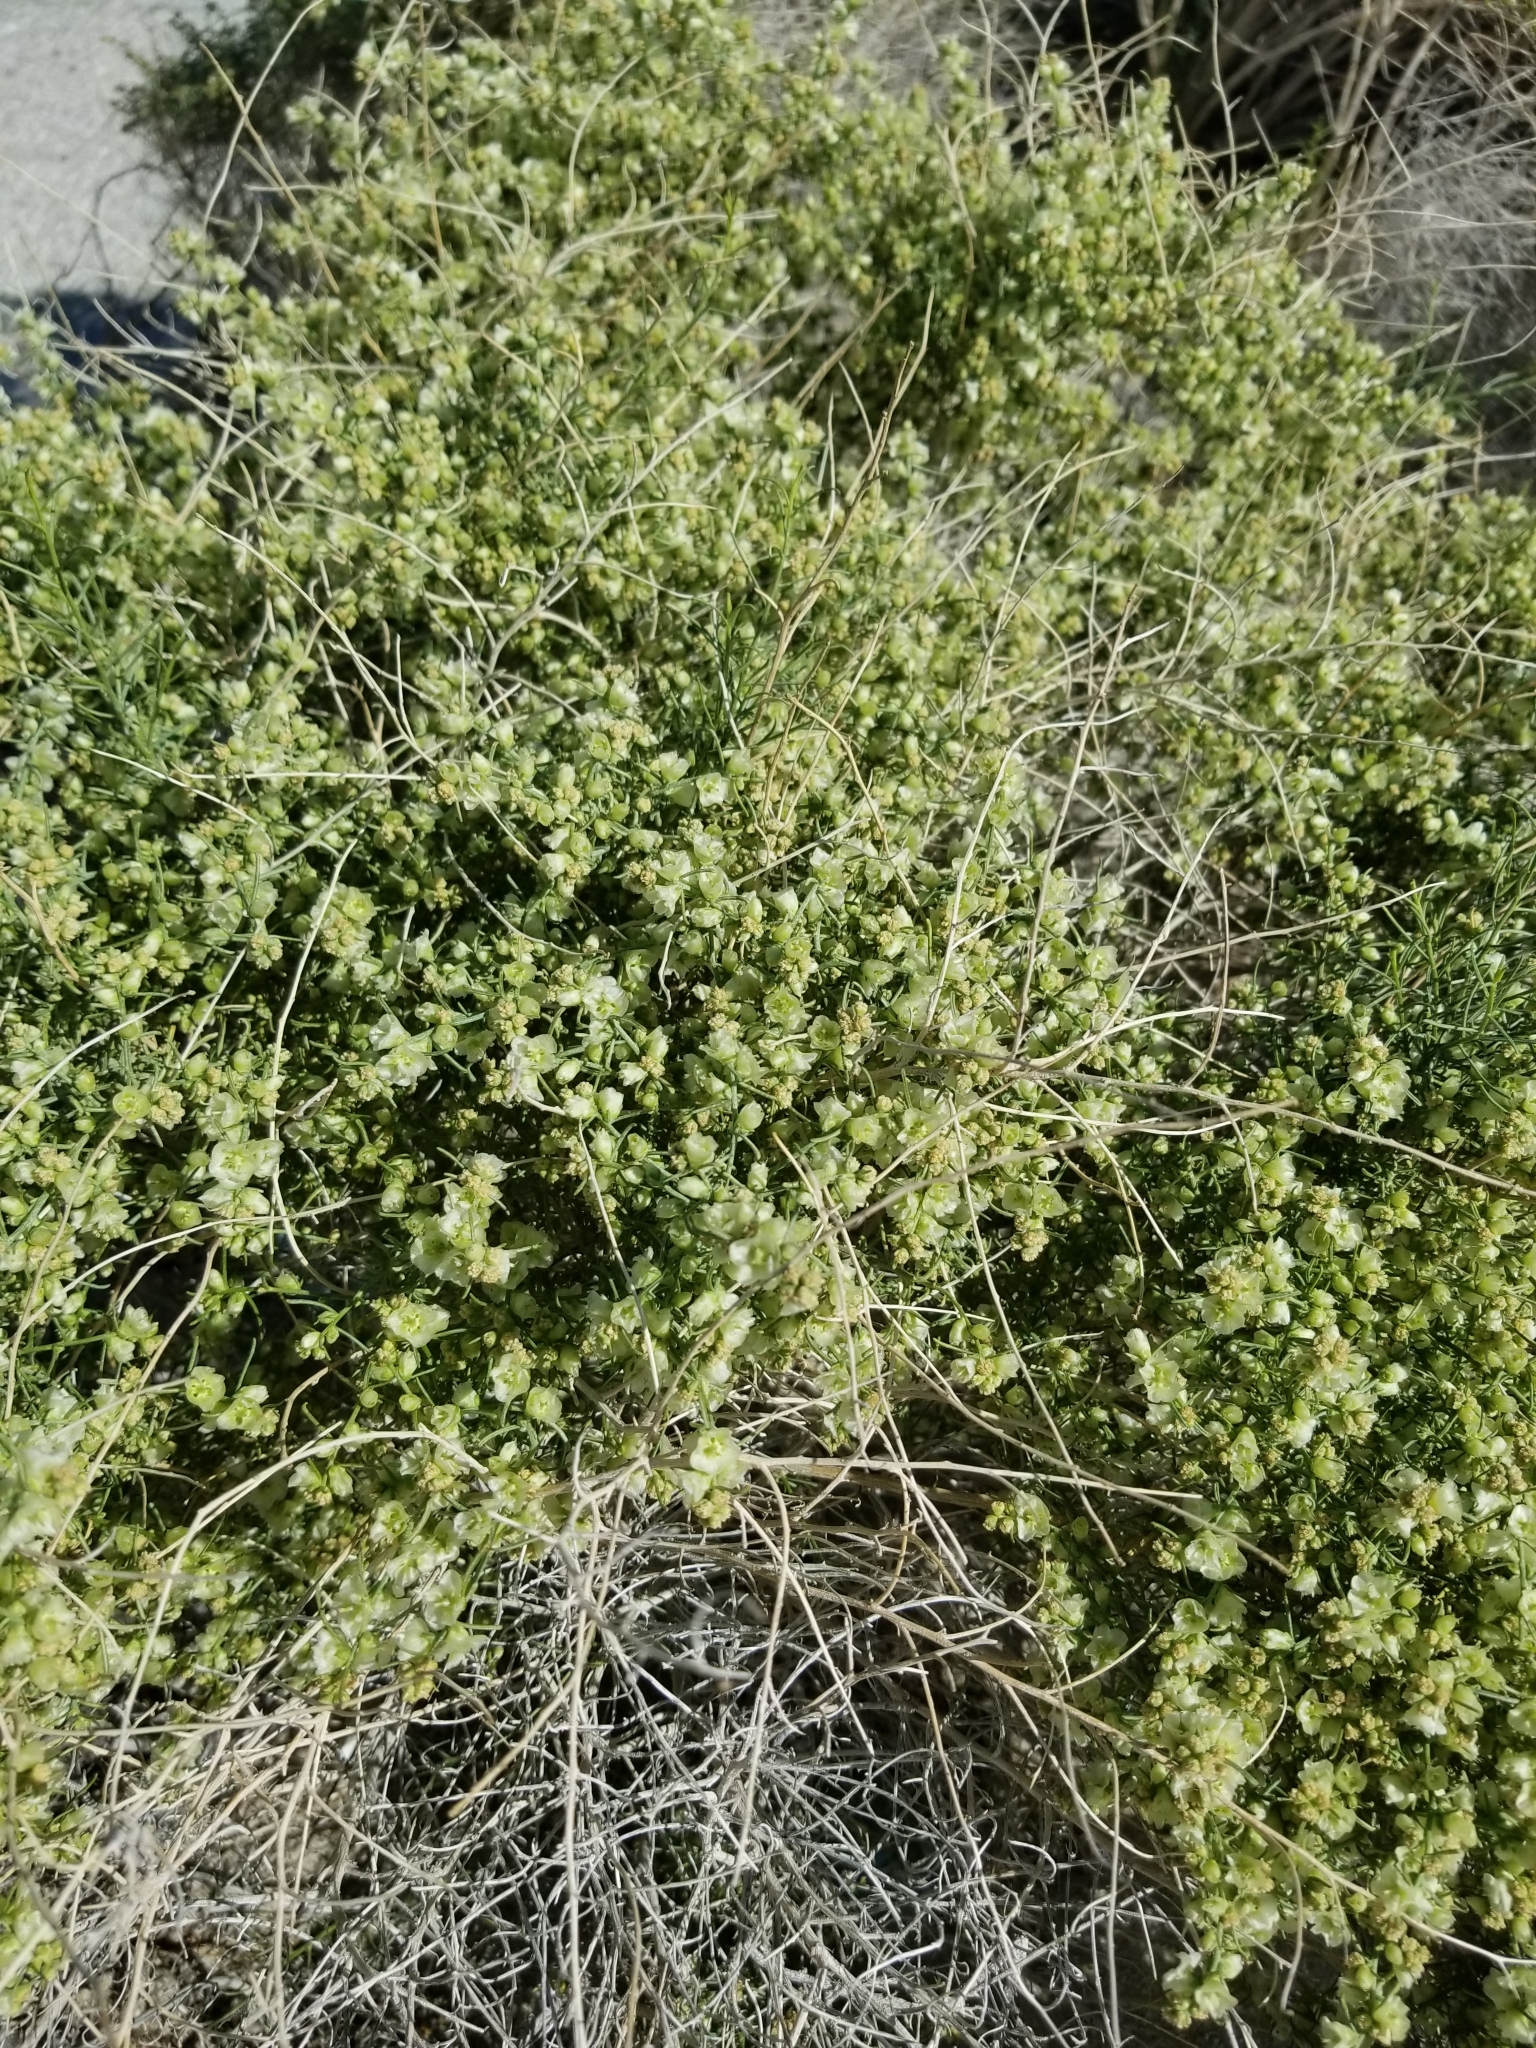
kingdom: Plantae
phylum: Tracheophyta
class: Magnoliopsida
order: Asterales
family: Asteraceae
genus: Ambrosia
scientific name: Ambrosia salsola
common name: Burrobrush
